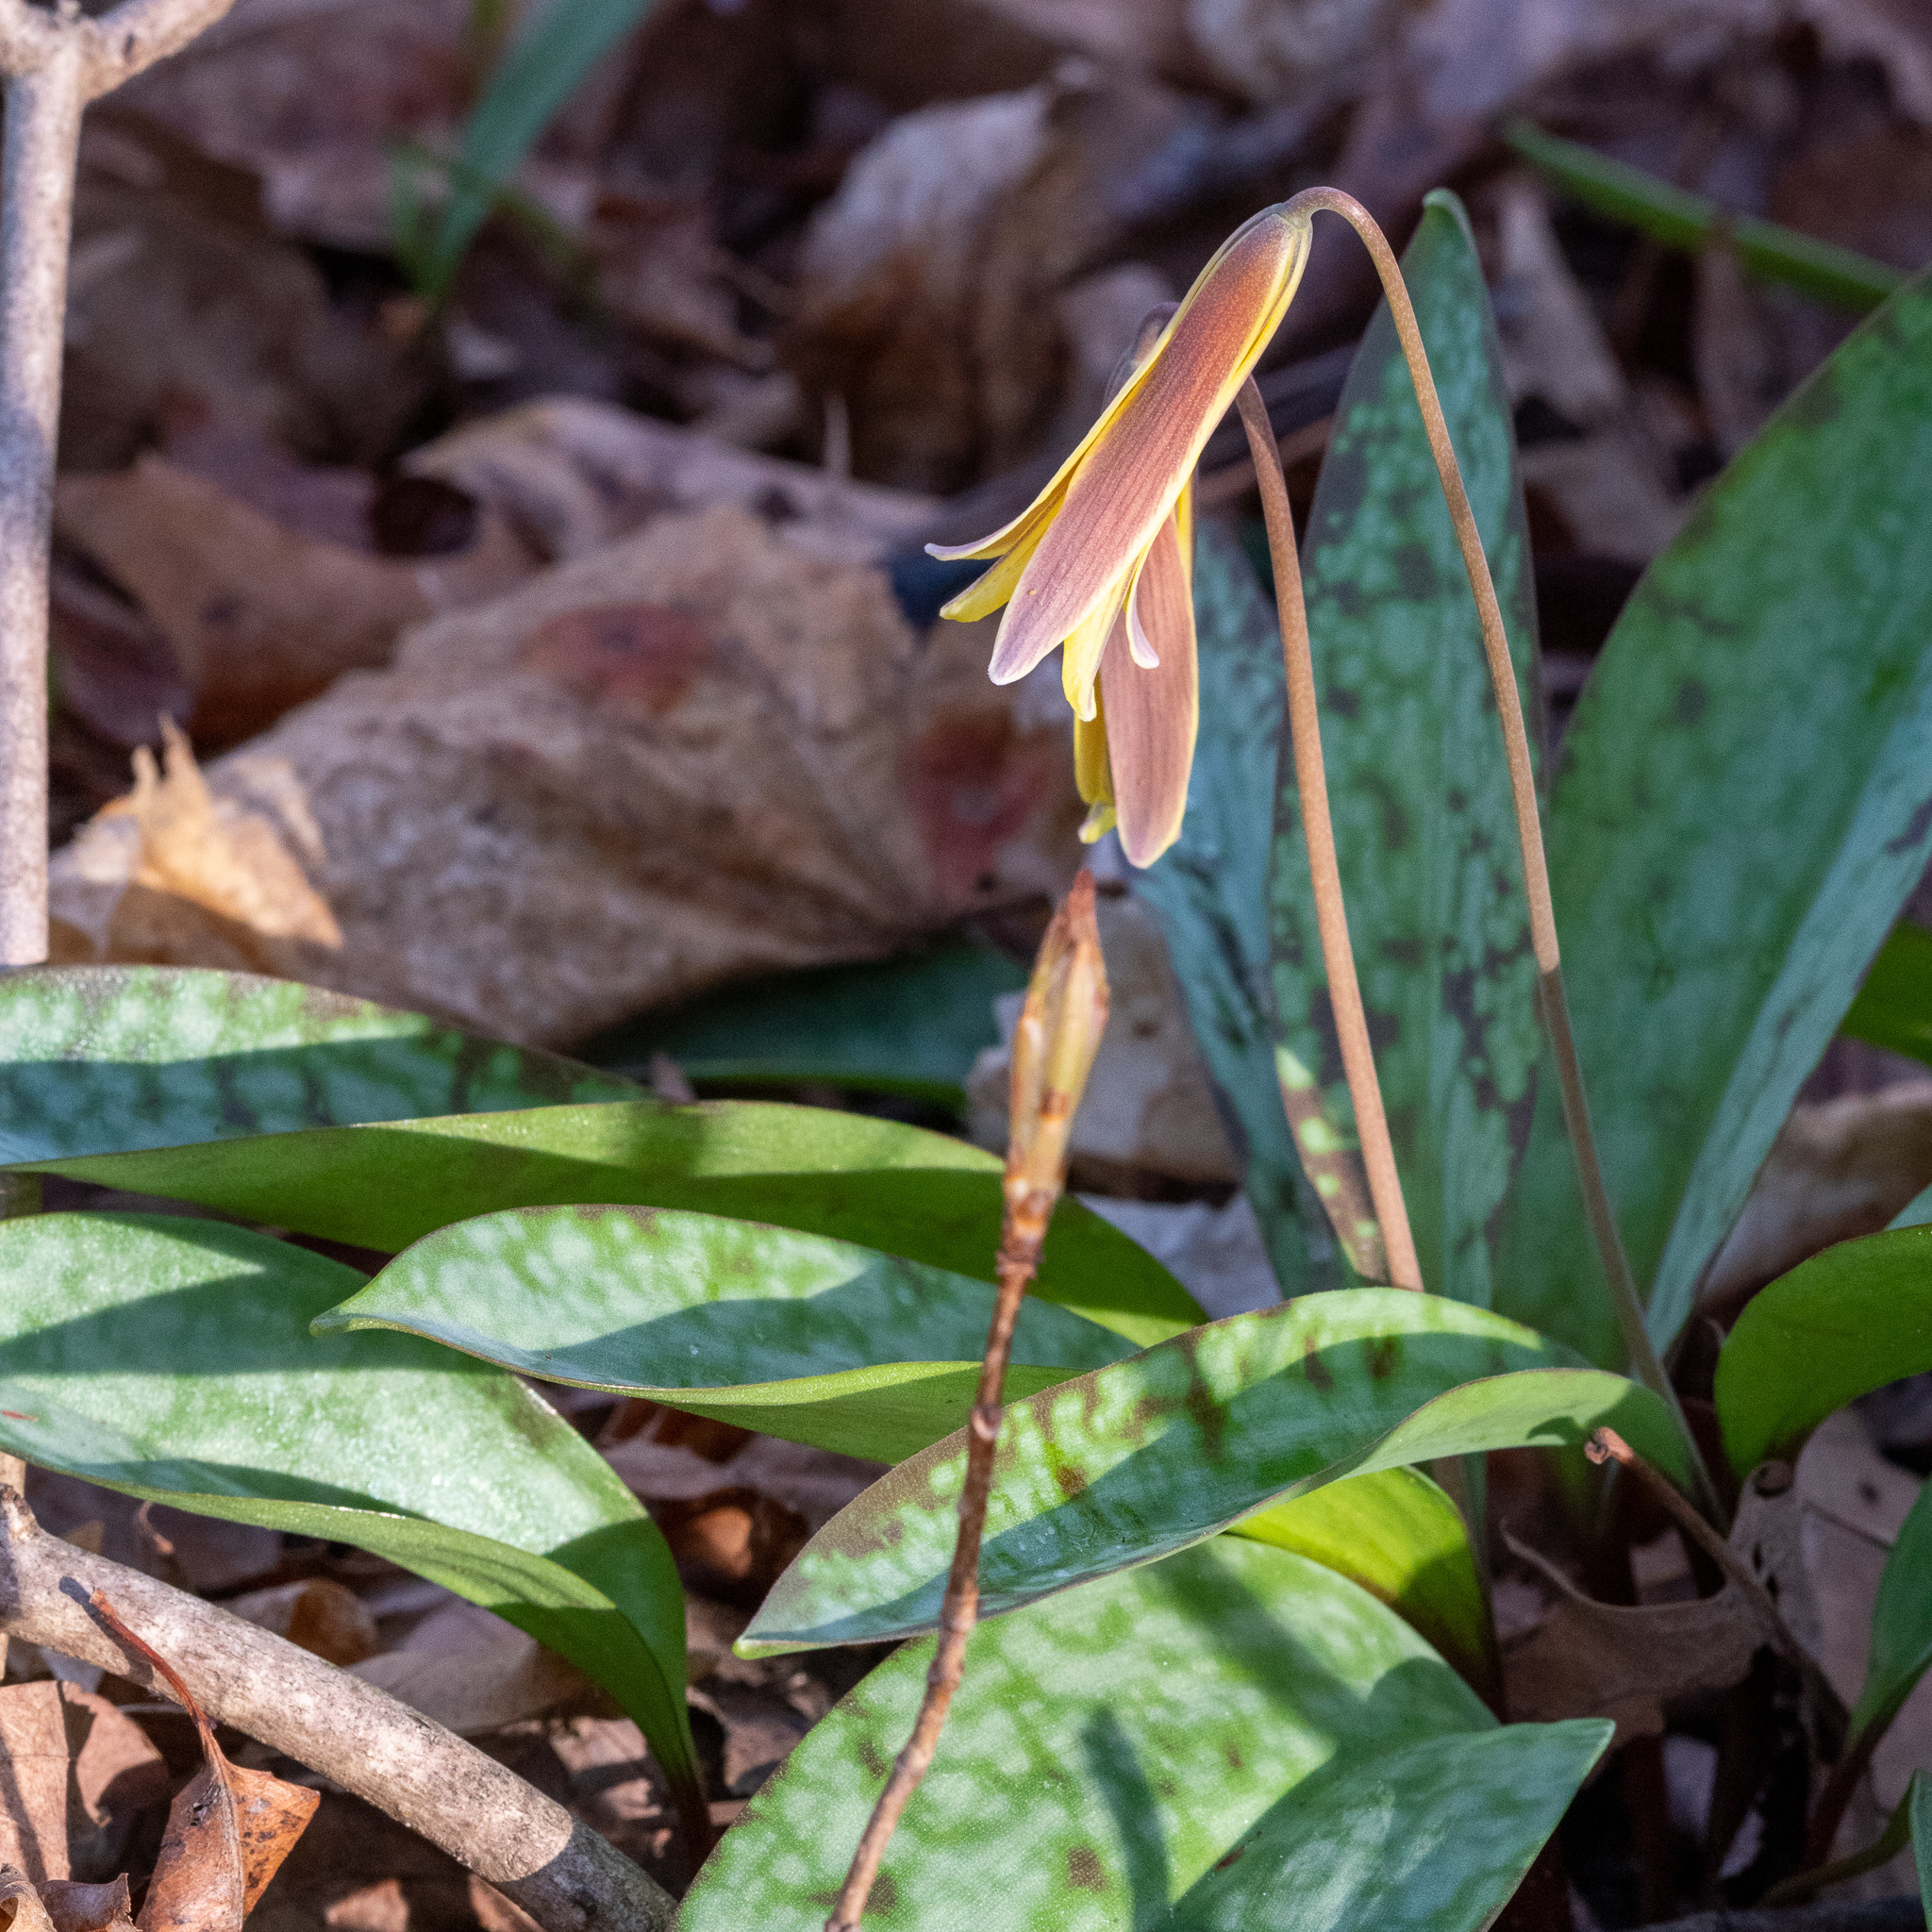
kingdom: Plantae
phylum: Tracheophyta
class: Liliopsida
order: Liliales
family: Liliaceae
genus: Erythronium
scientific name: Erythronium americanum
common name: Yellow adder's-tongue
